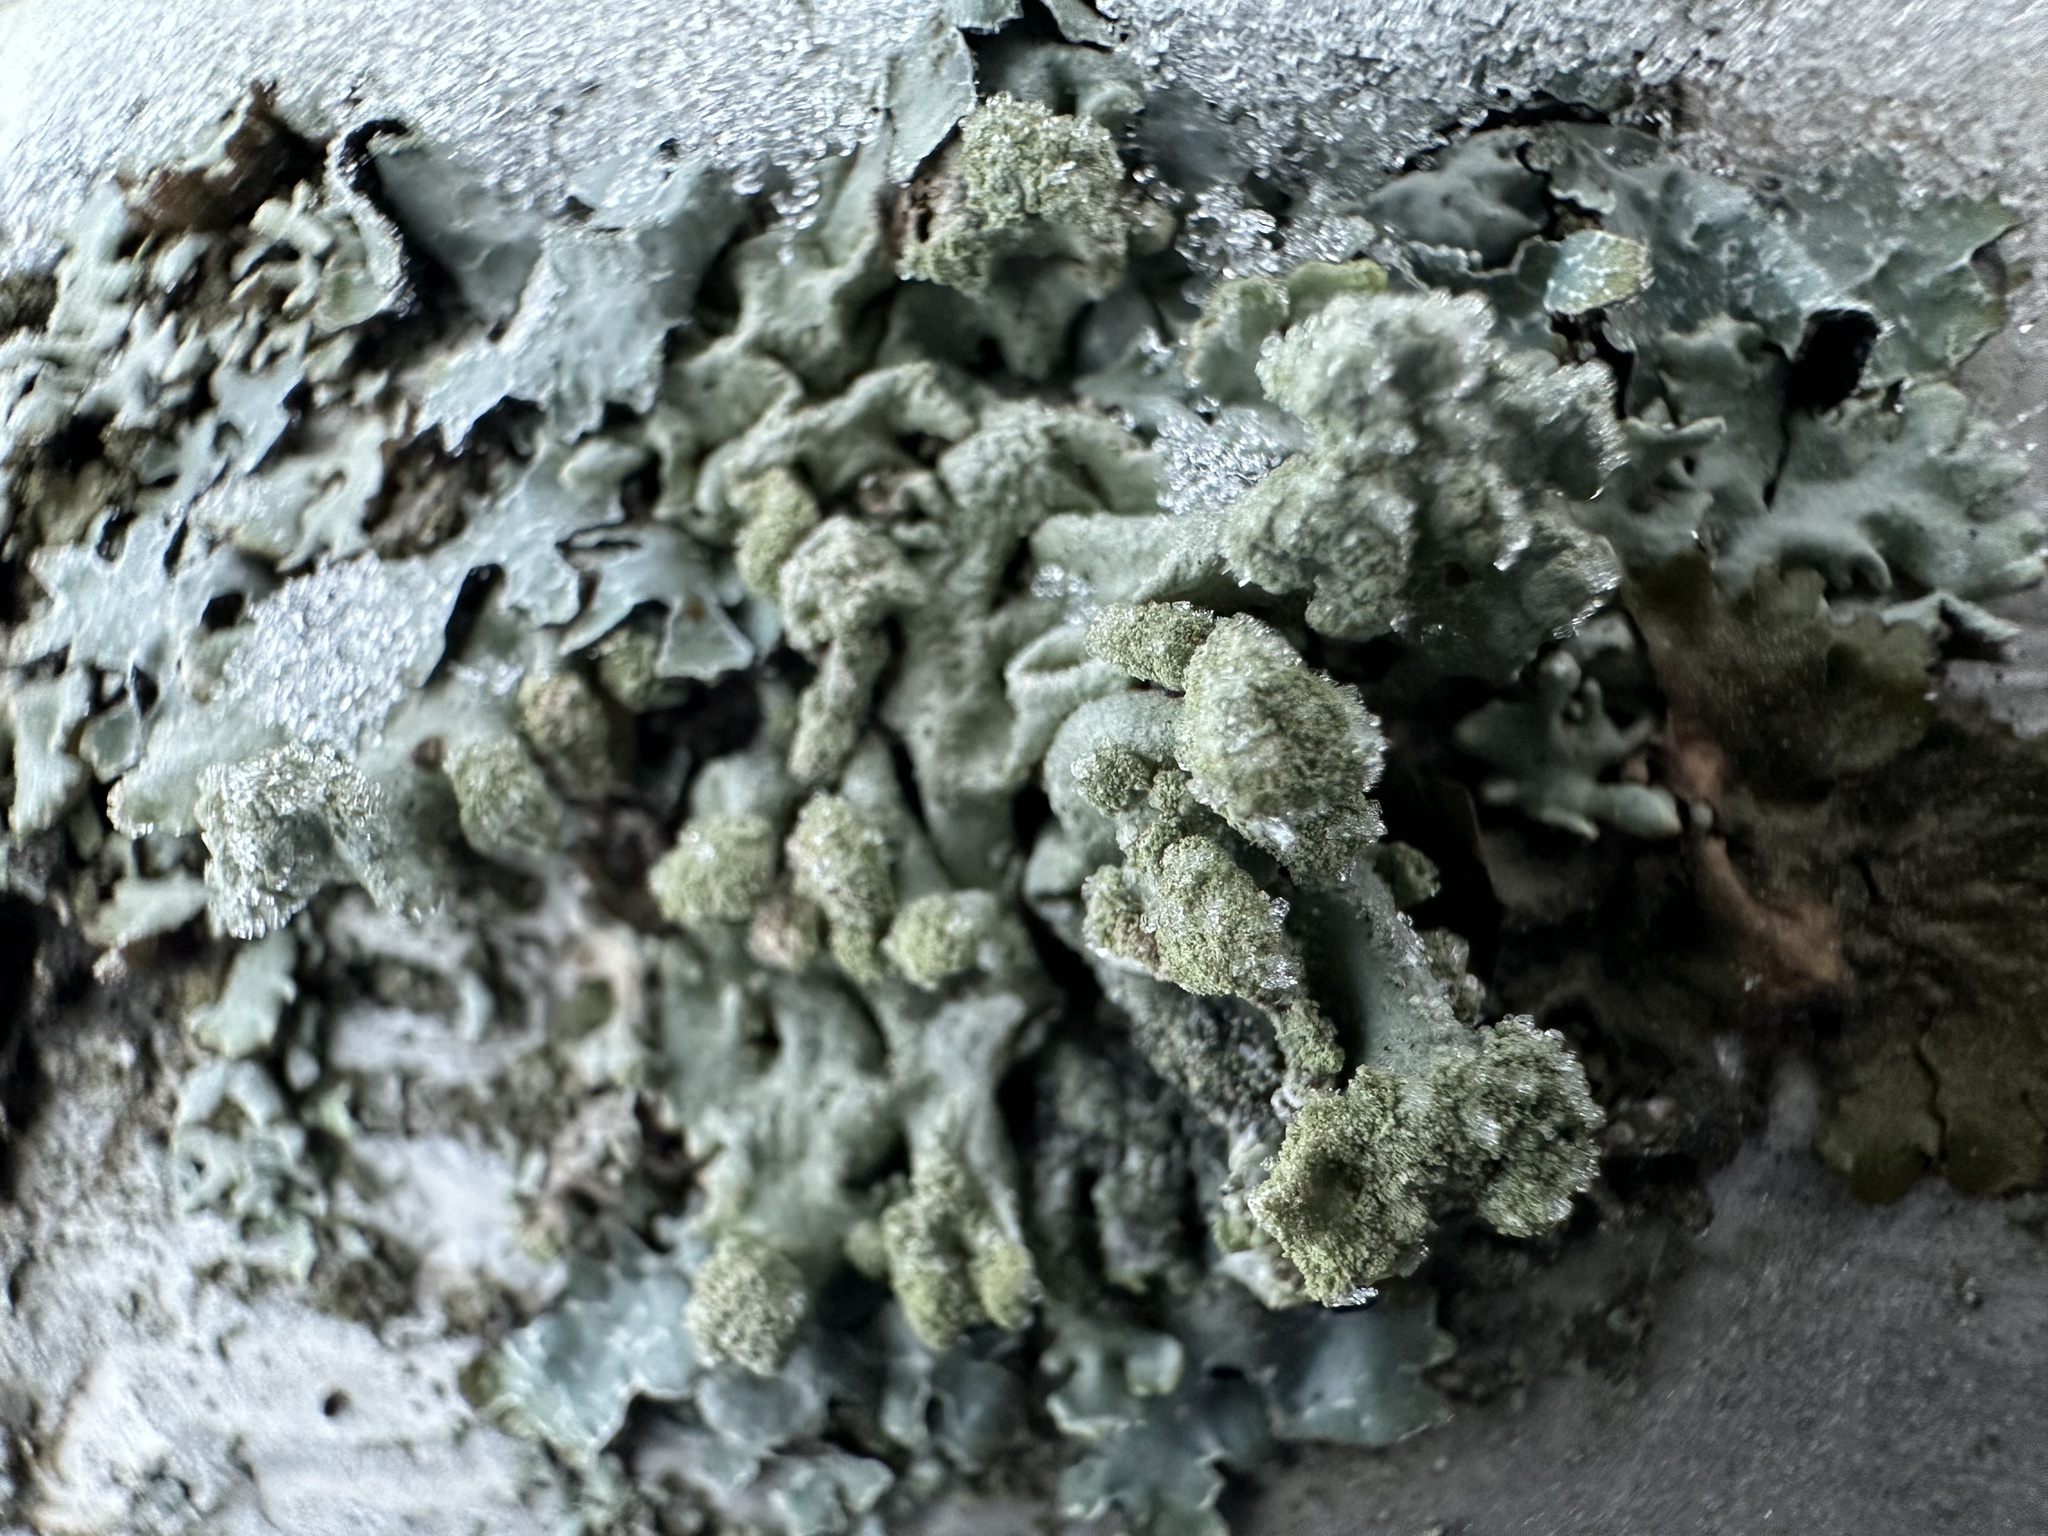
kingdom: Fungi
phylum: Ascomycota
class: Lecanoromycetes
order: Lecanorales
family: Parmeliaceae
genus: Hypogymnia
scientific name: Hypogymnia tubulosa
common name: Powder-headed tube lichen
